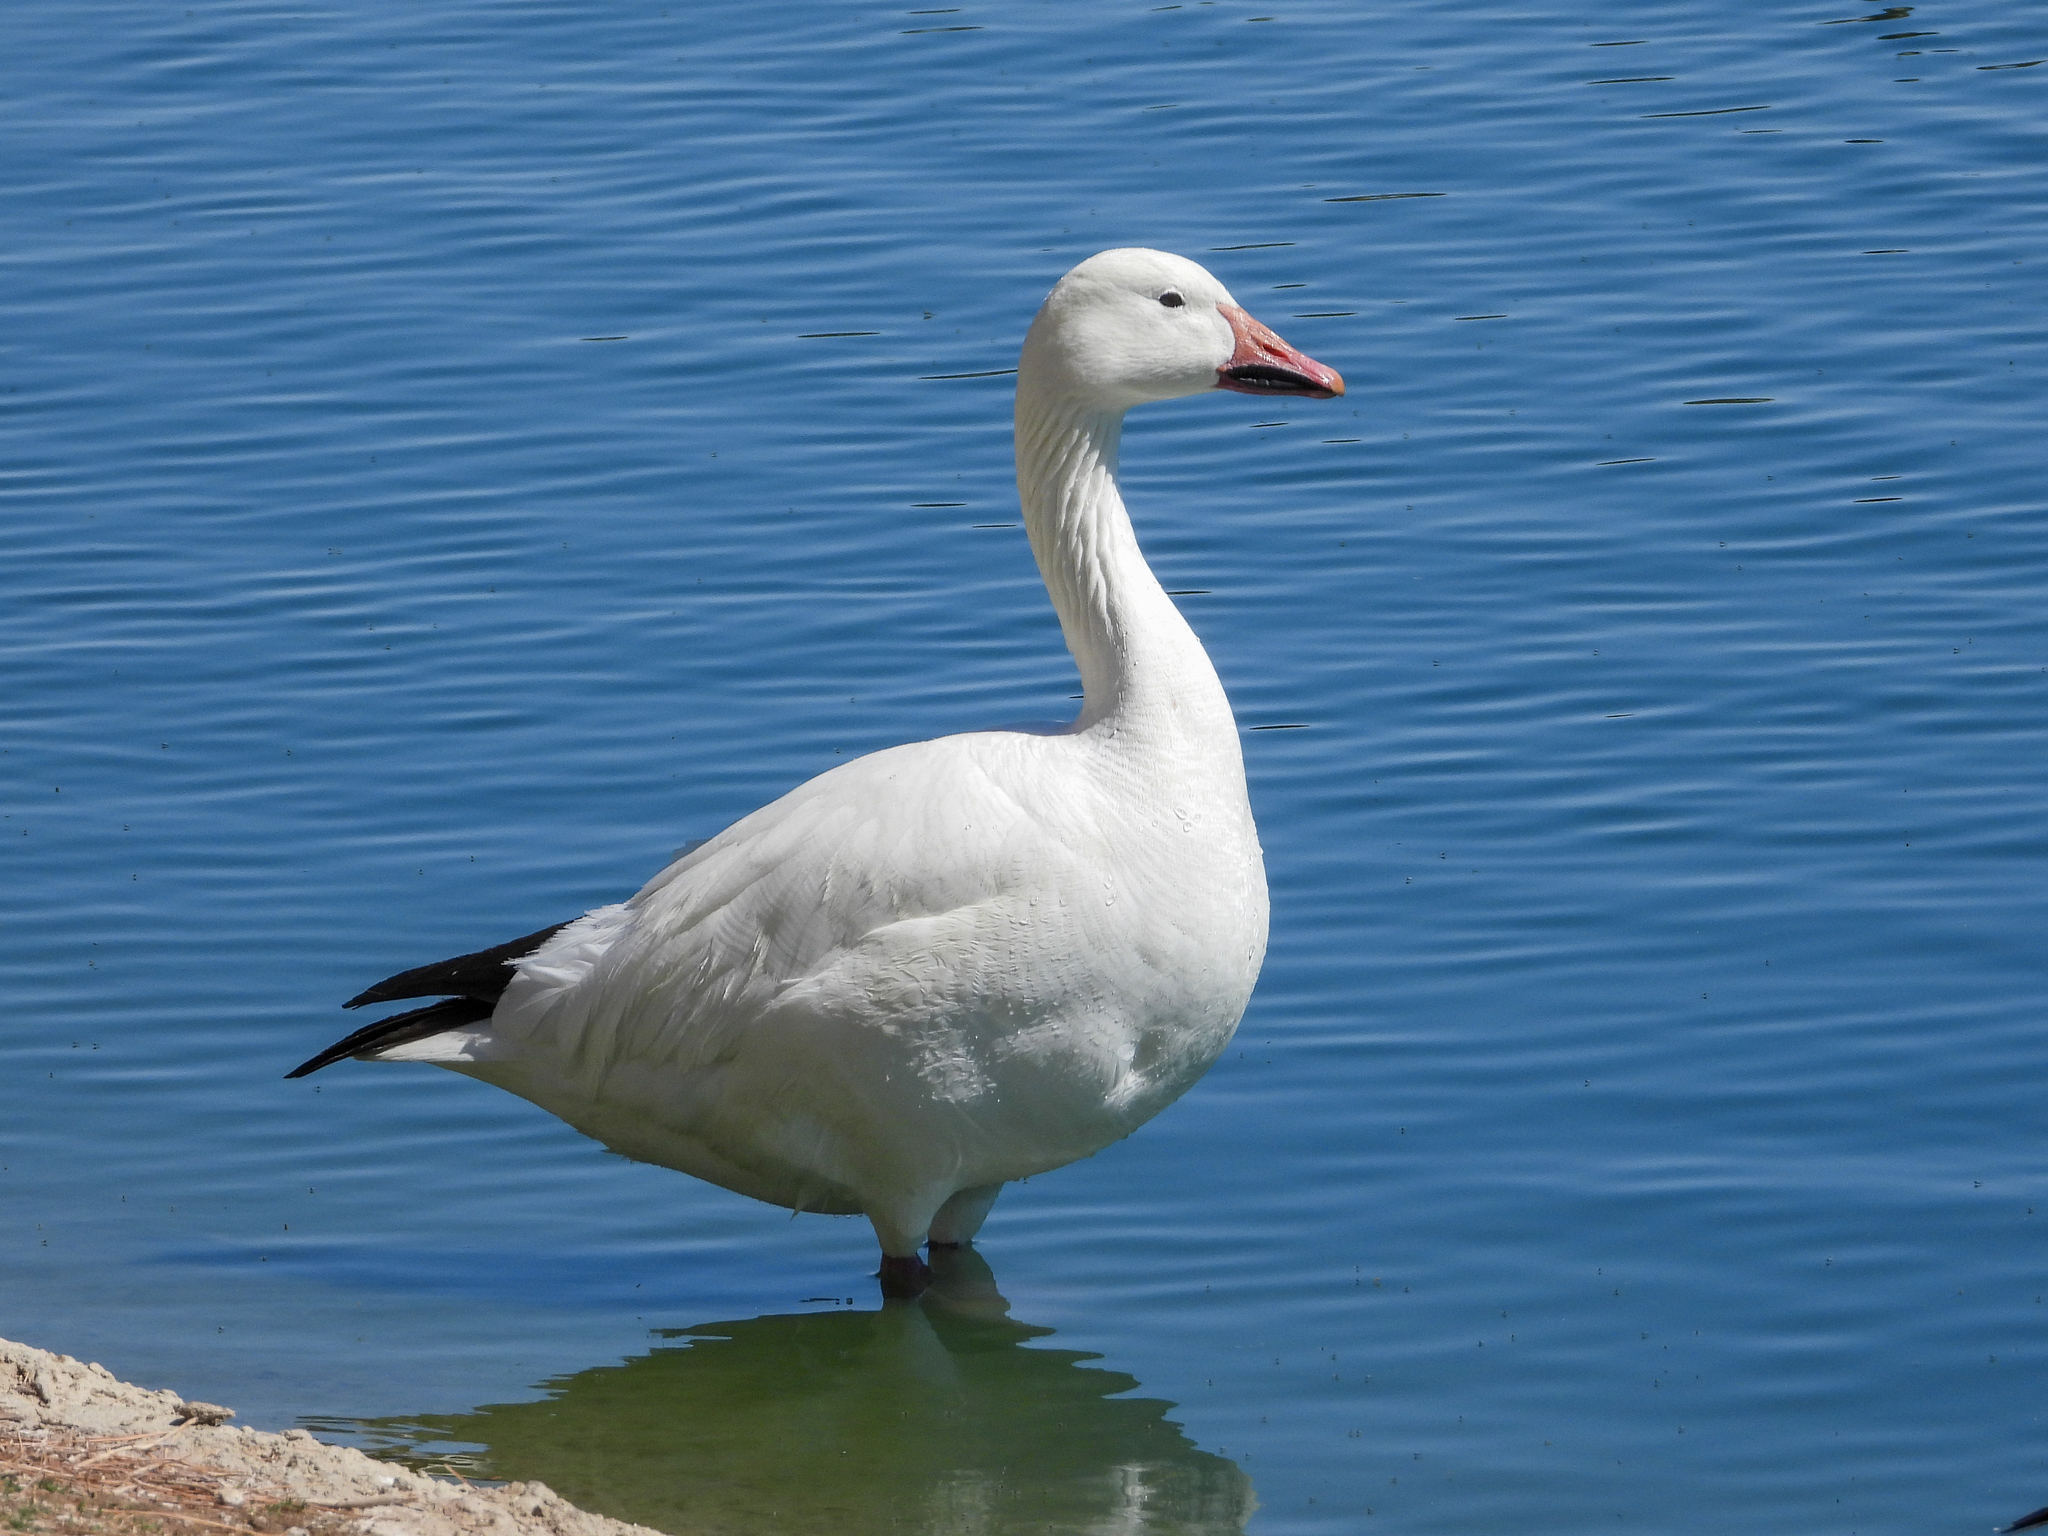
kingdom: Animalia
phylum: Chordata
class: Aves
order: Anseriformes
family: Anatidae
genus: Anser
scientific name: Anser caerulescens
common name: Snow goose
